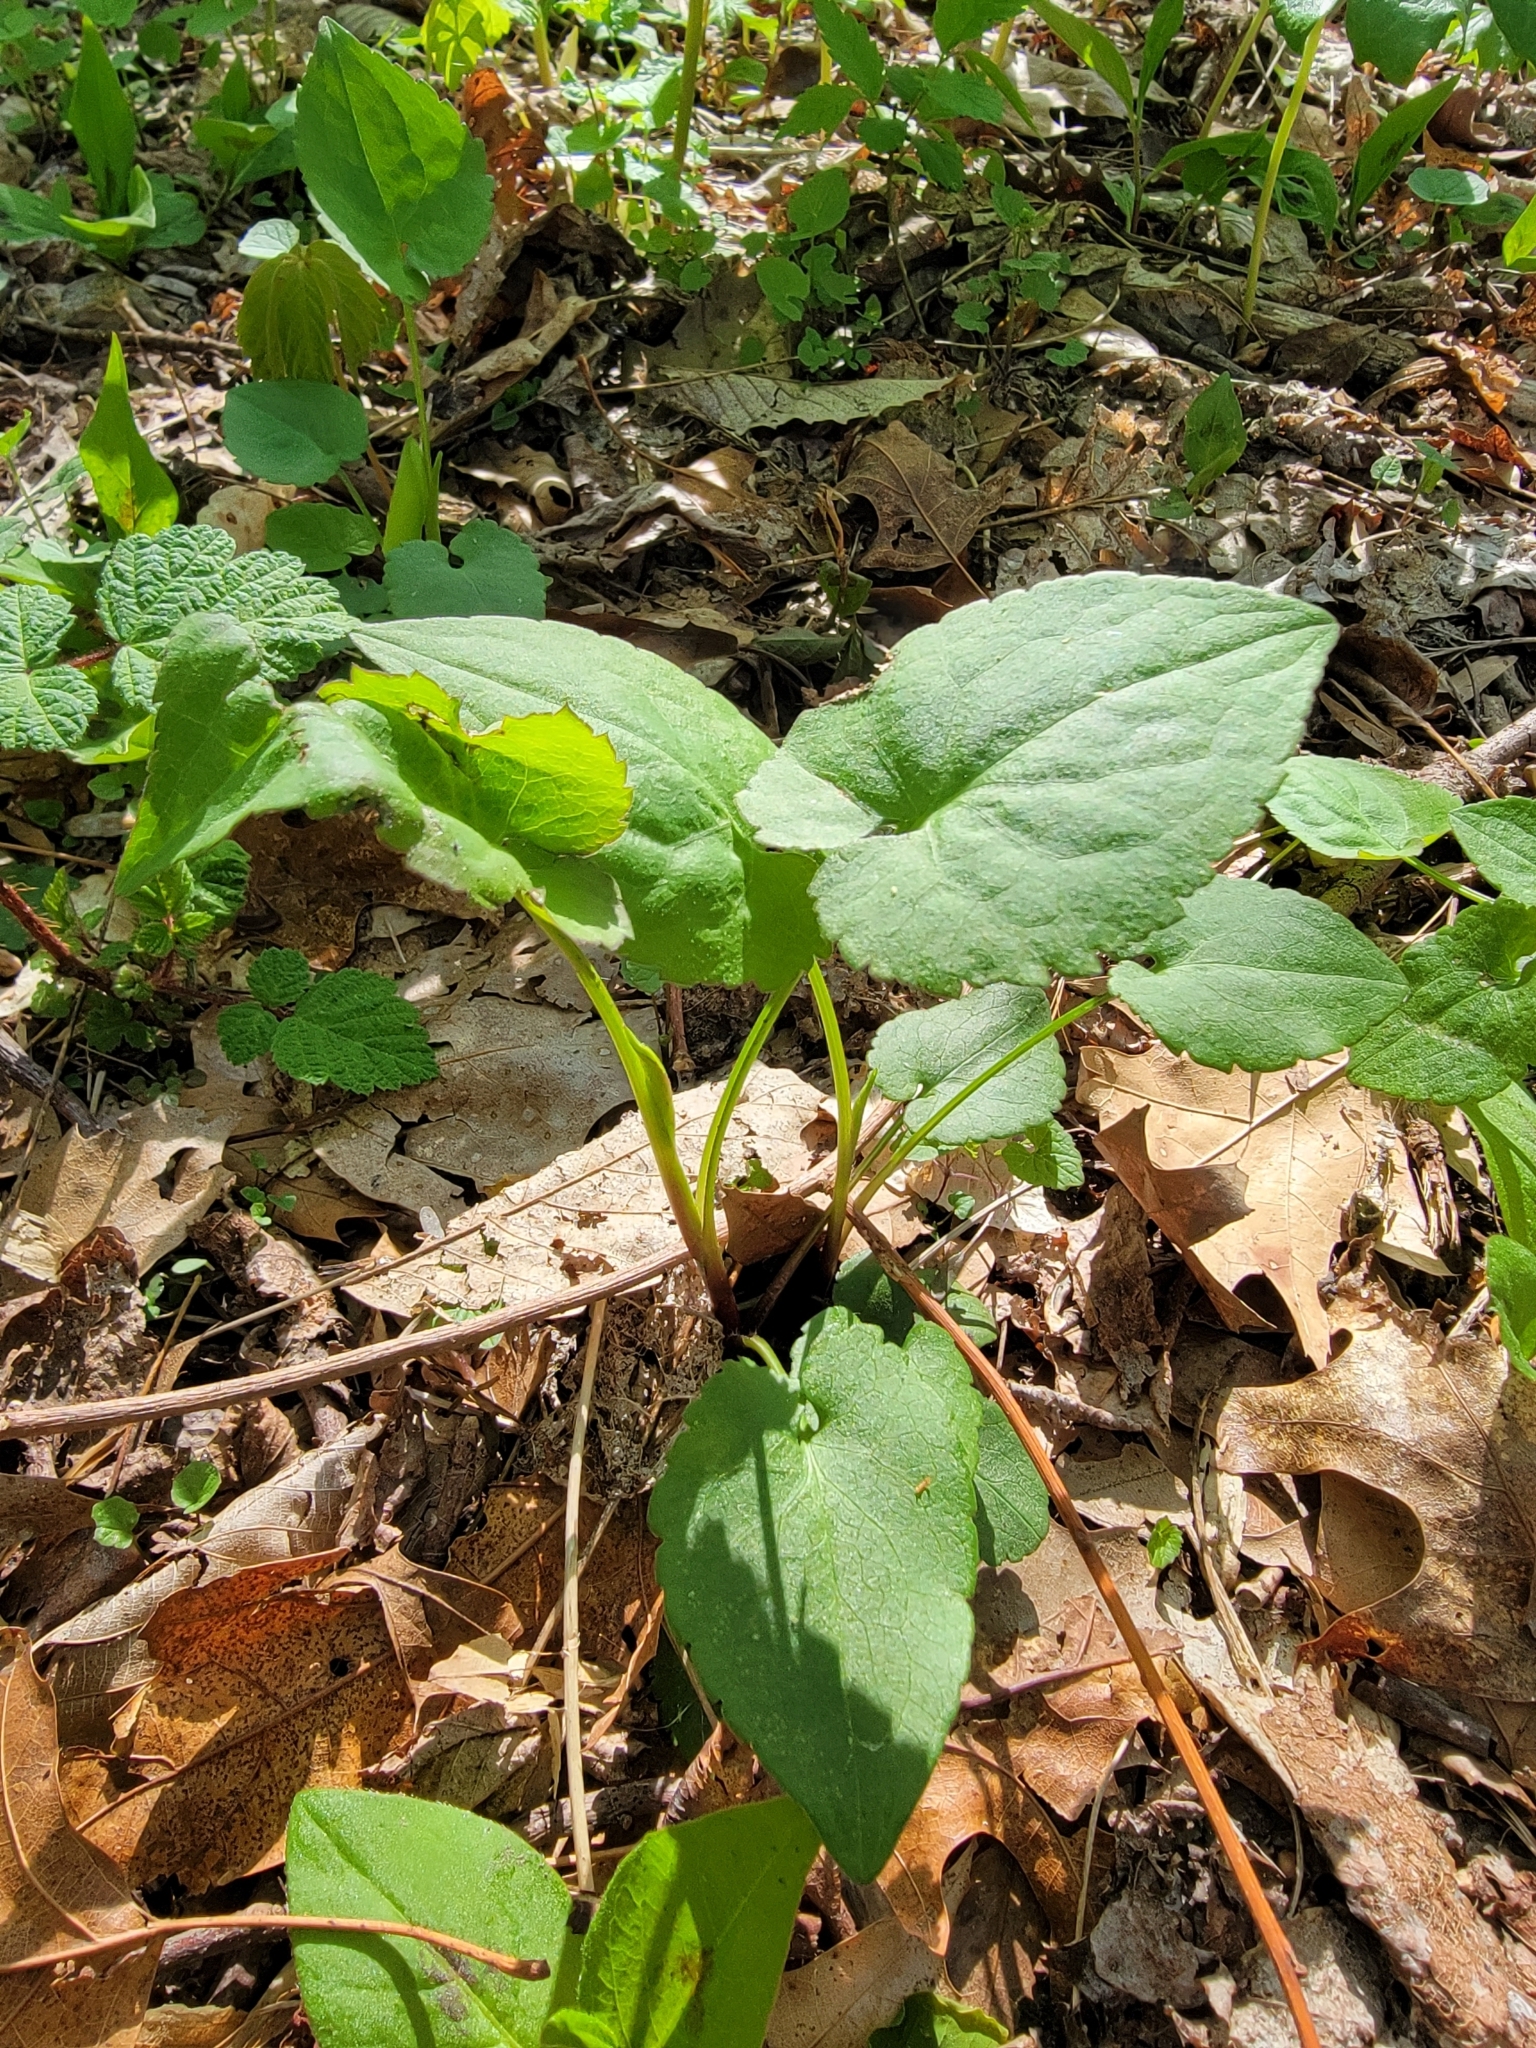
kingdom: Plantae
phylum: Tracheophyta
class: Magnoliopsida
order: Asterales
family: Asteraceae
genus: Symphyotrichum
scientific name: Symphyotrichum cordifolium
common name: Beeweed
